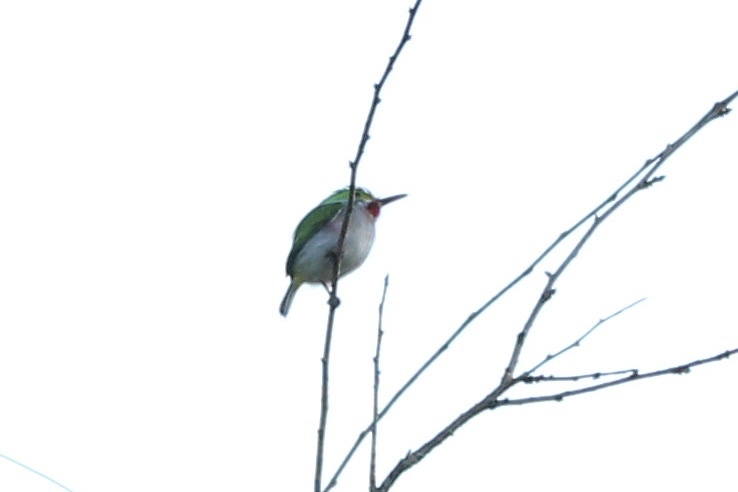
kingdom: Animalia
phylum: Chordata
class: Aves
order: Coraciiformes
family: Todidae
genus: Todus
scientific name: Todus multicolor
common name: Cuban tody
